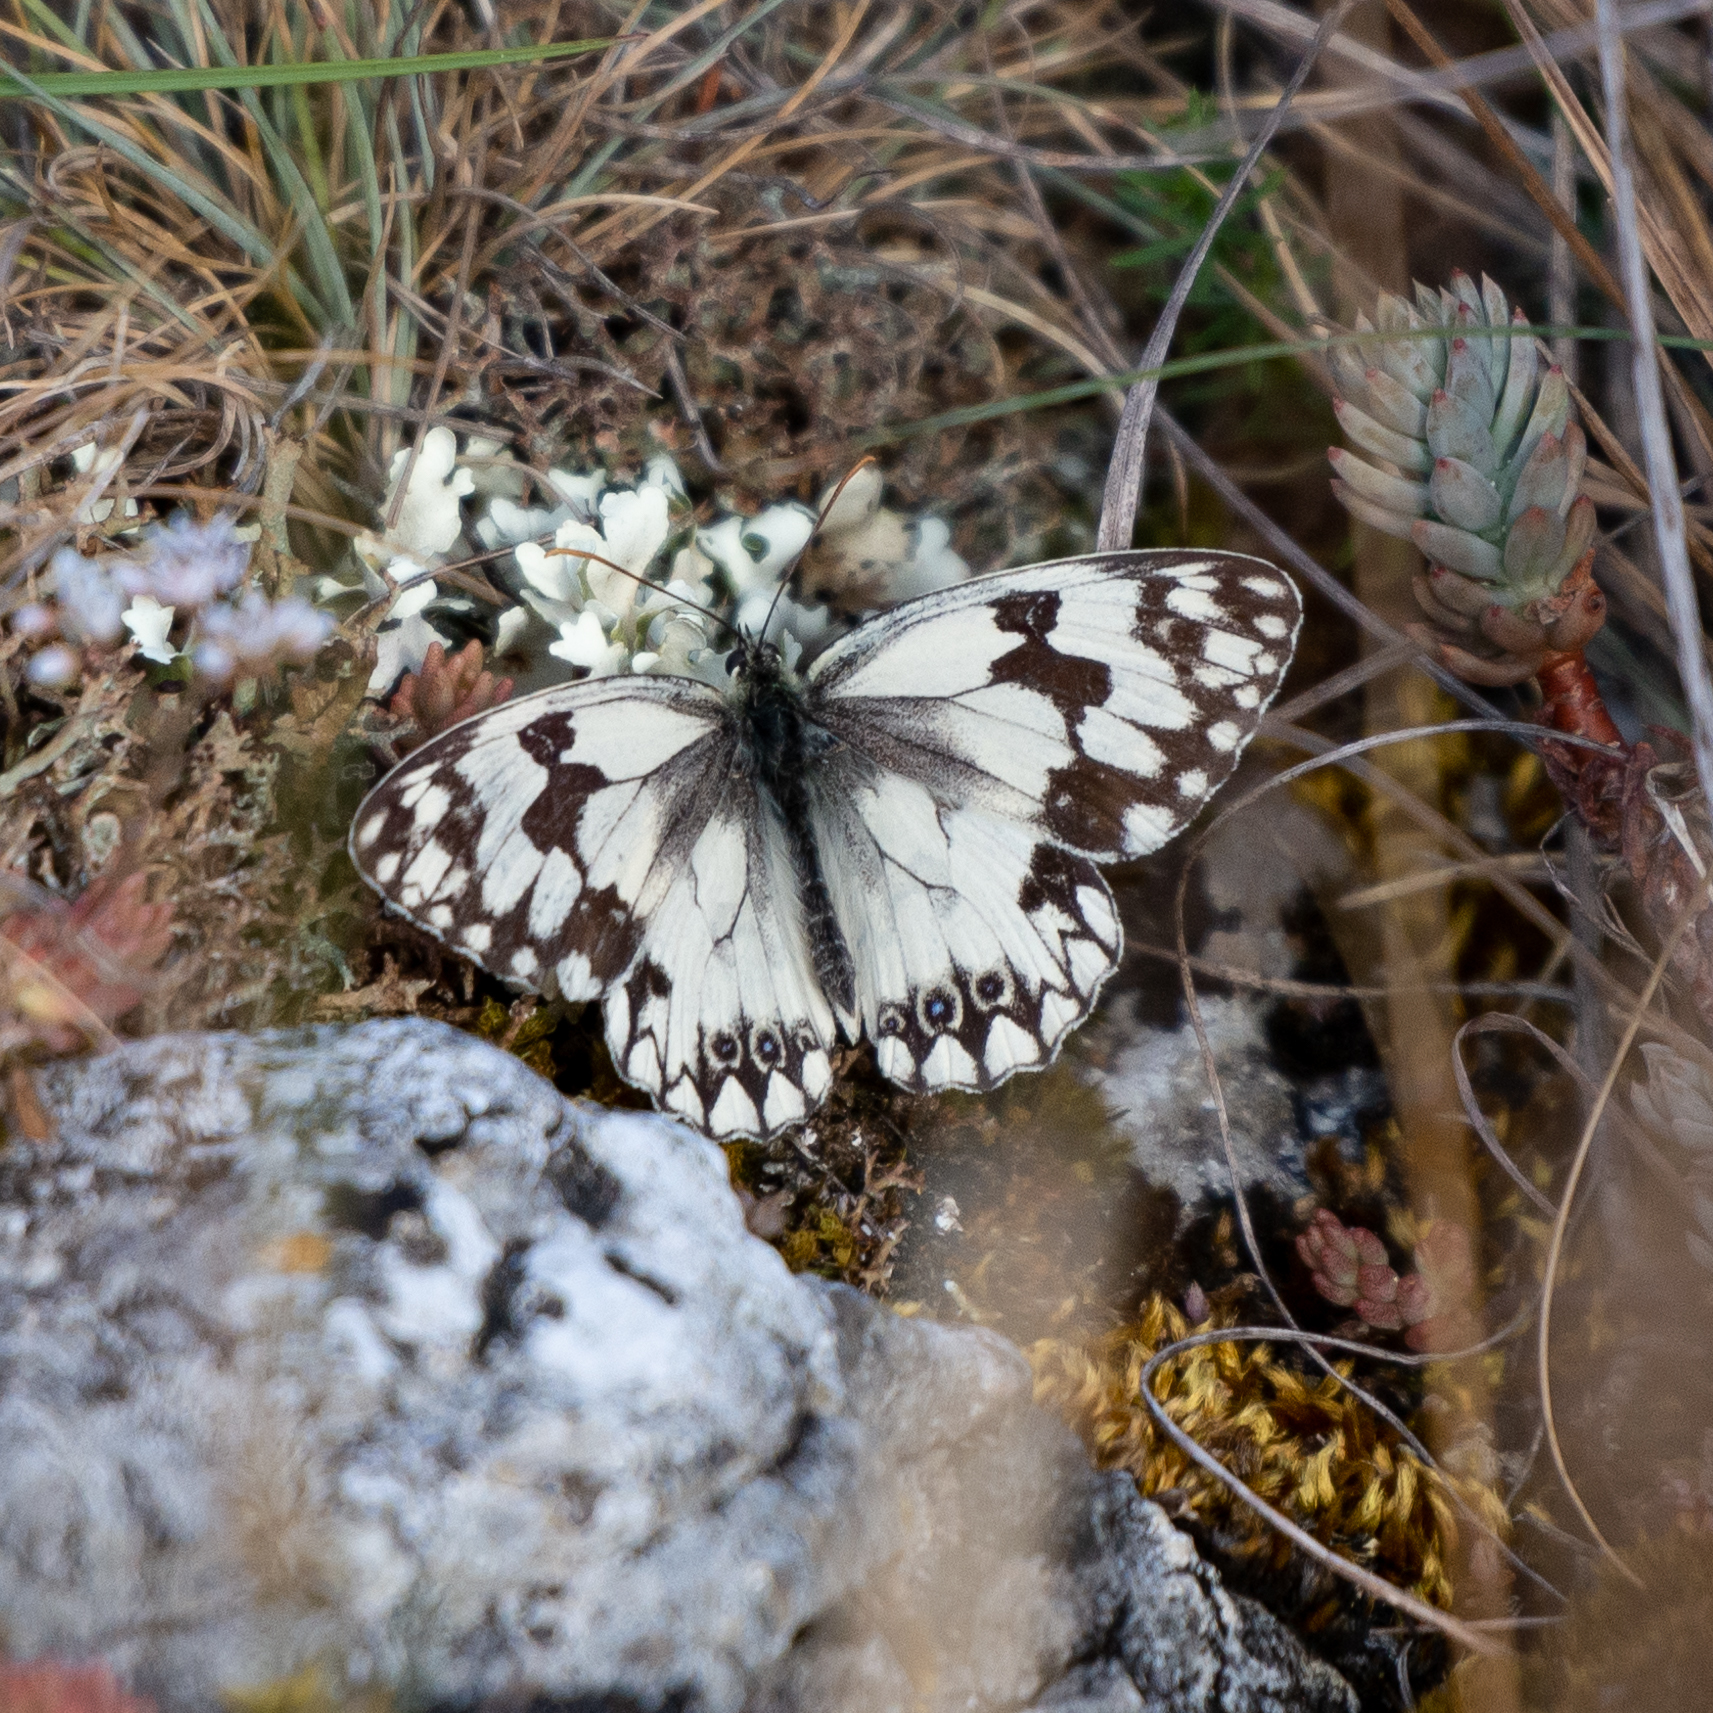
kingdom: Animalia
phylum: Arthropoda
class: Insecta
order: Lepidoptera
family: Nymphalidae
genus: Melanargia
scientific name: Melanargia lachesis
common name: Iberian marbled white
